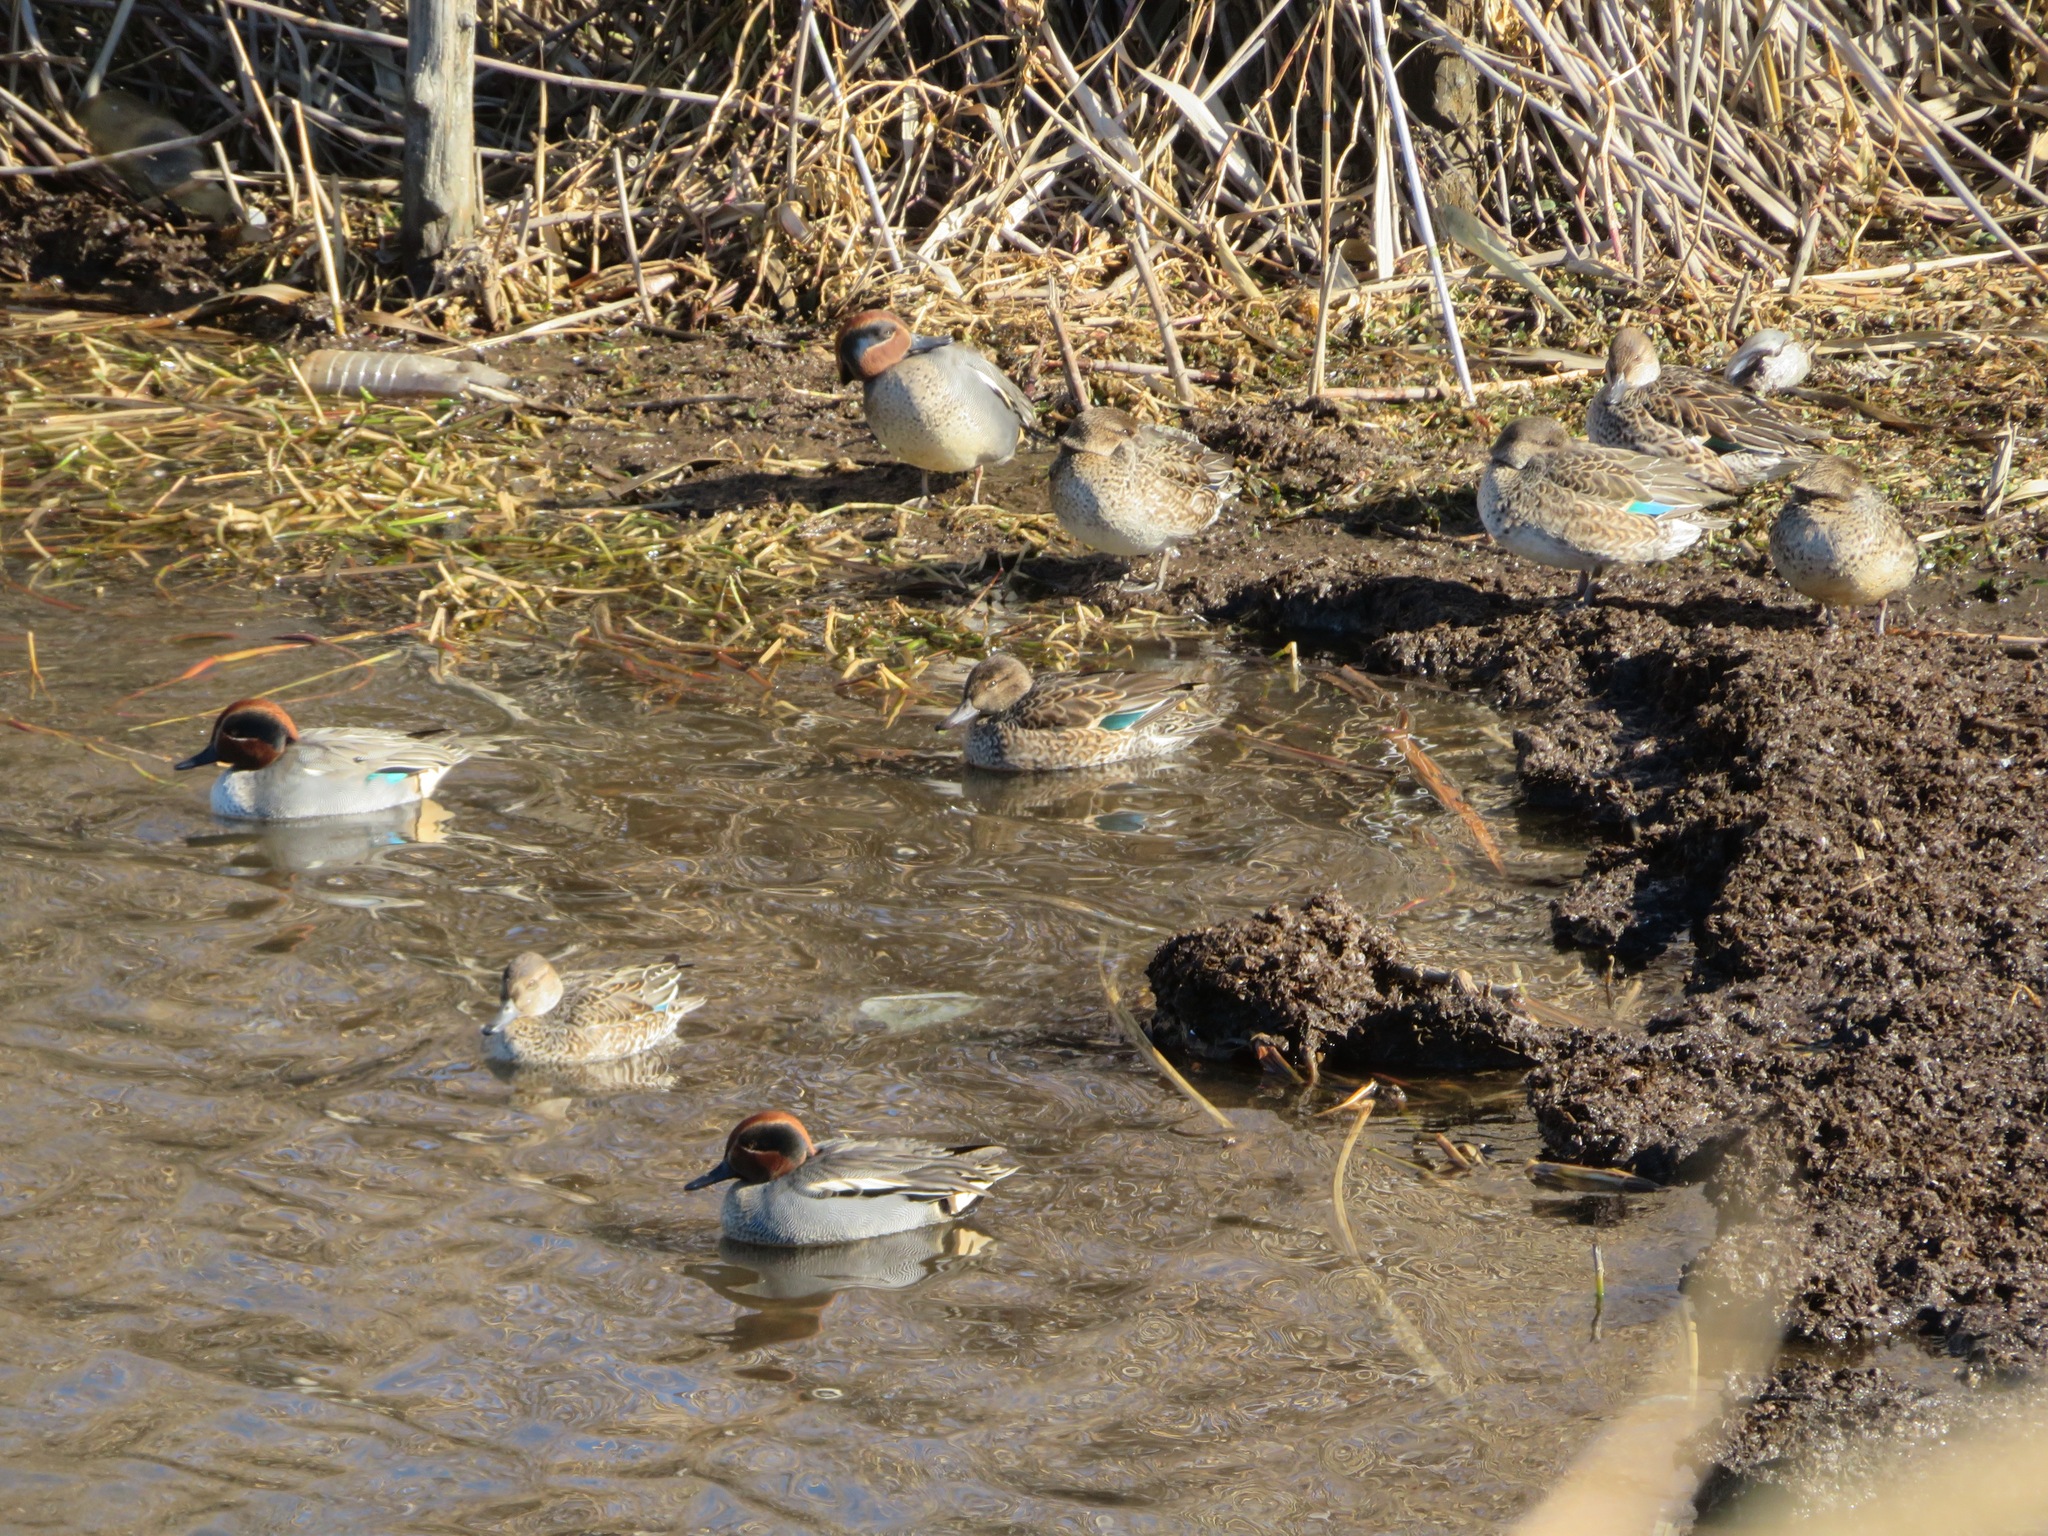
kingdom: Animalia
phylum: Chordata
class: Aves
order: Anseriformes
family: Anatidae
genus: Anas
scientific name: Anas crecca
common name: Eurasian teal
